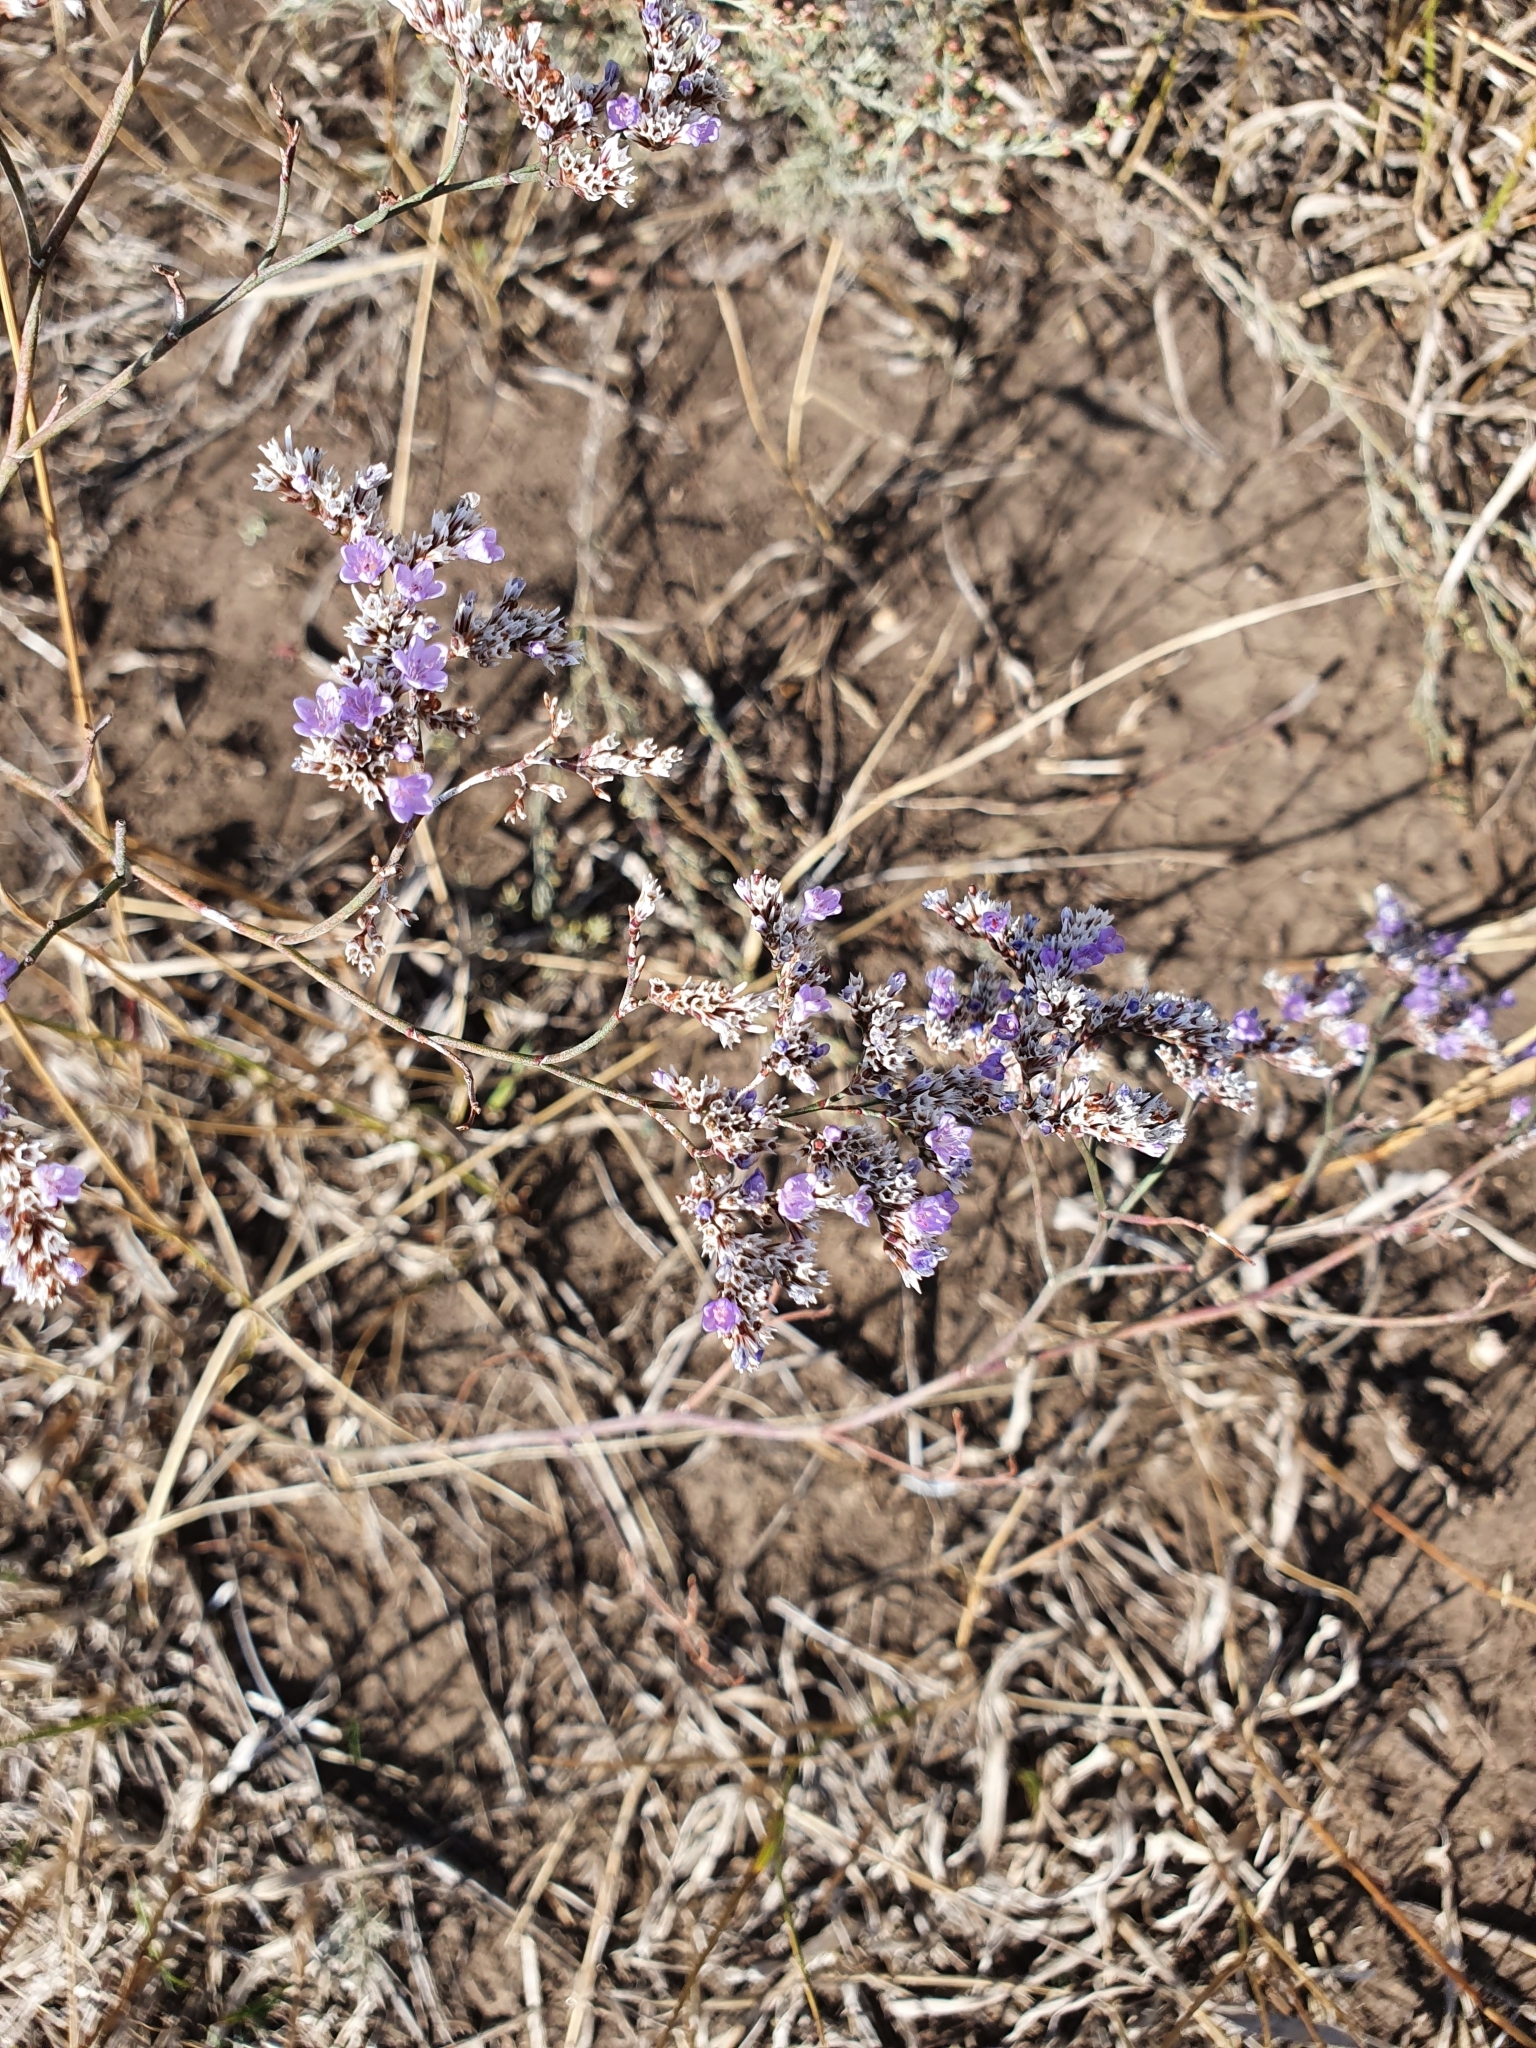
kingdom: Plantae
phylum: Tracheophyta
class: Magnoliopsida
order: Caryophyllales
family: Plumbaginaceae
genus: Limonium
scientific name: Limonium gmelini
